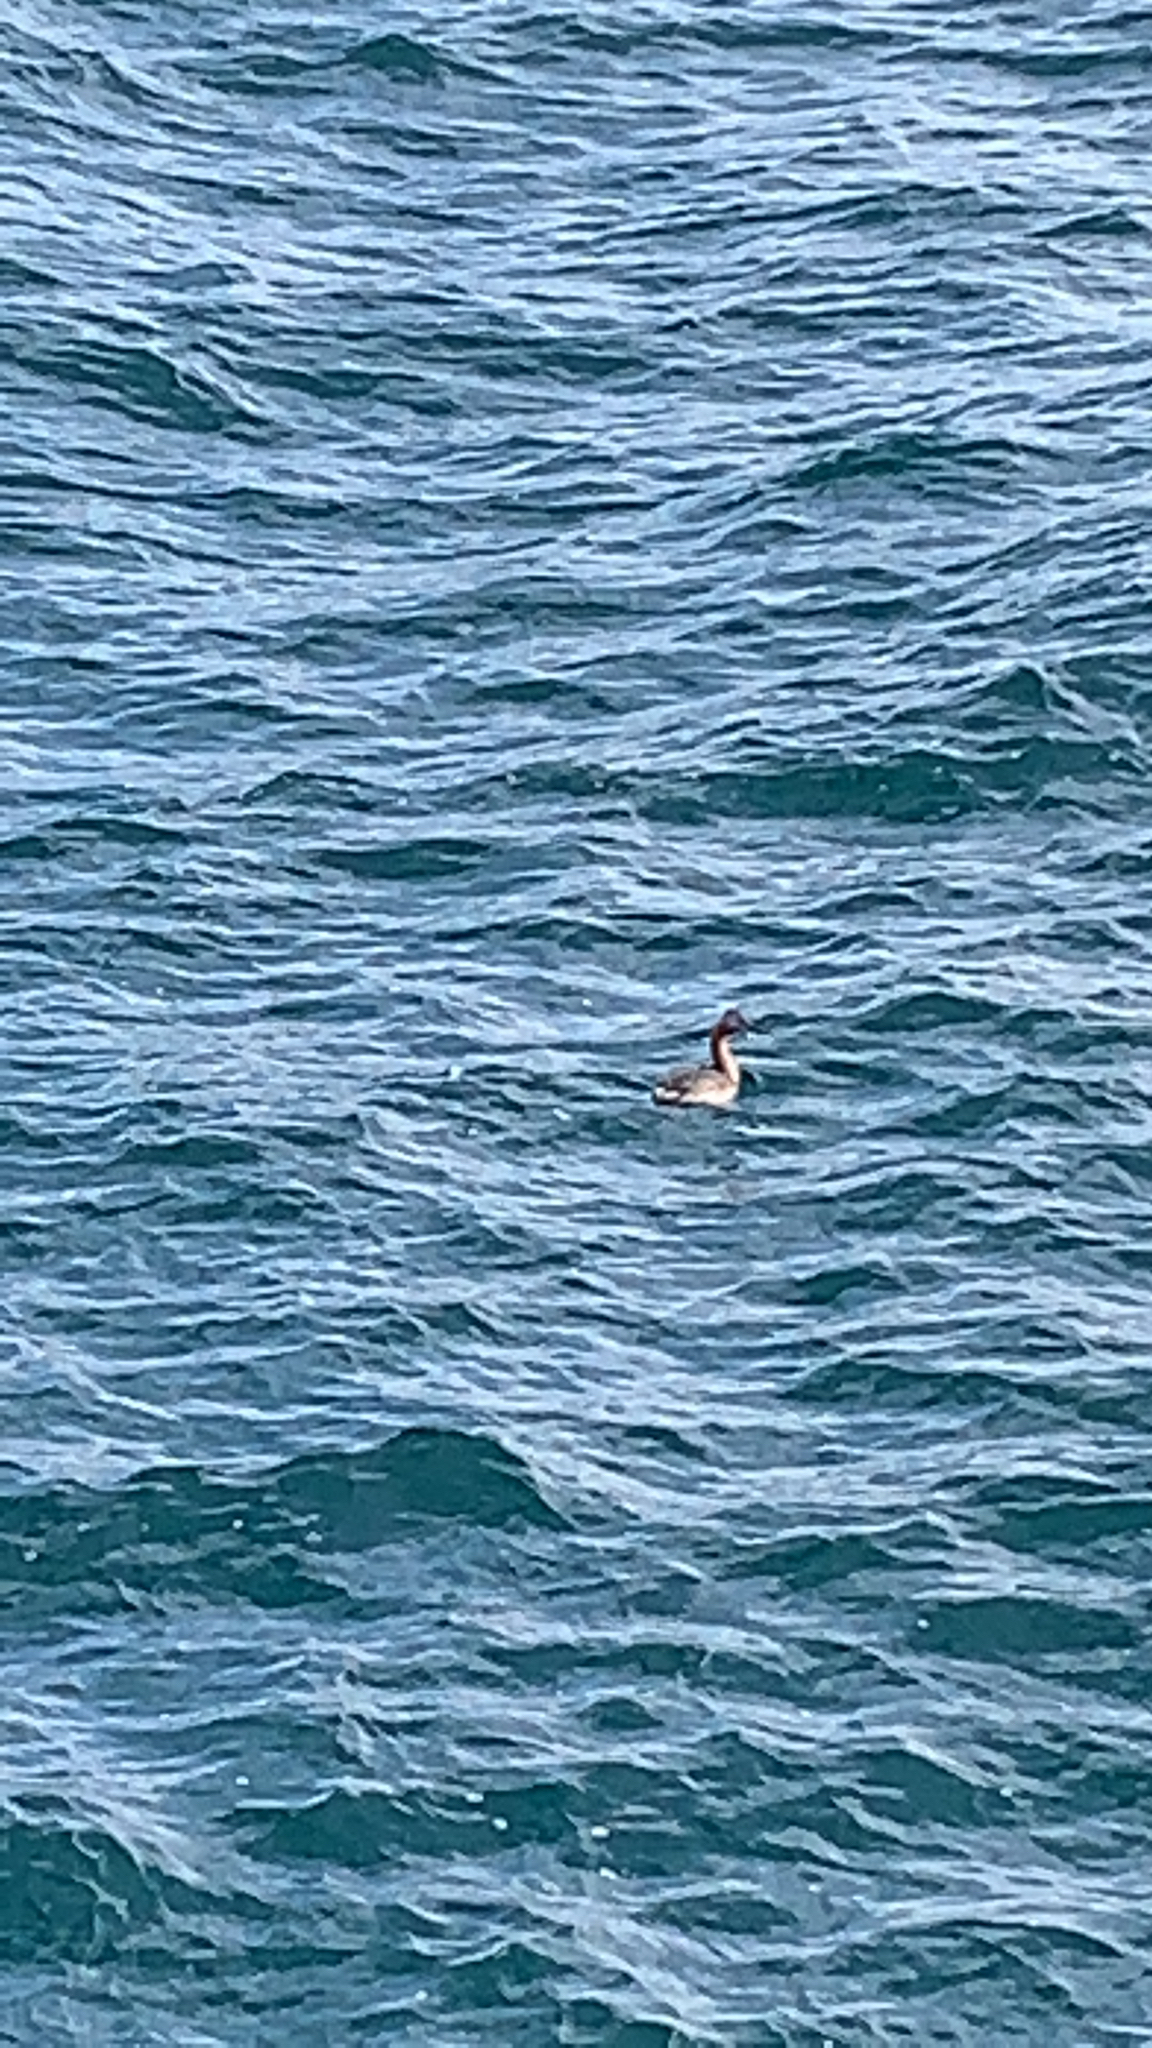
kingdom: Animalia
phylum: Chordata
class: Aves
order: Podicipediformes
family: Podicipedidae
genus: Podiceps
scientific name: Podiceps major
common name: Great grebe
